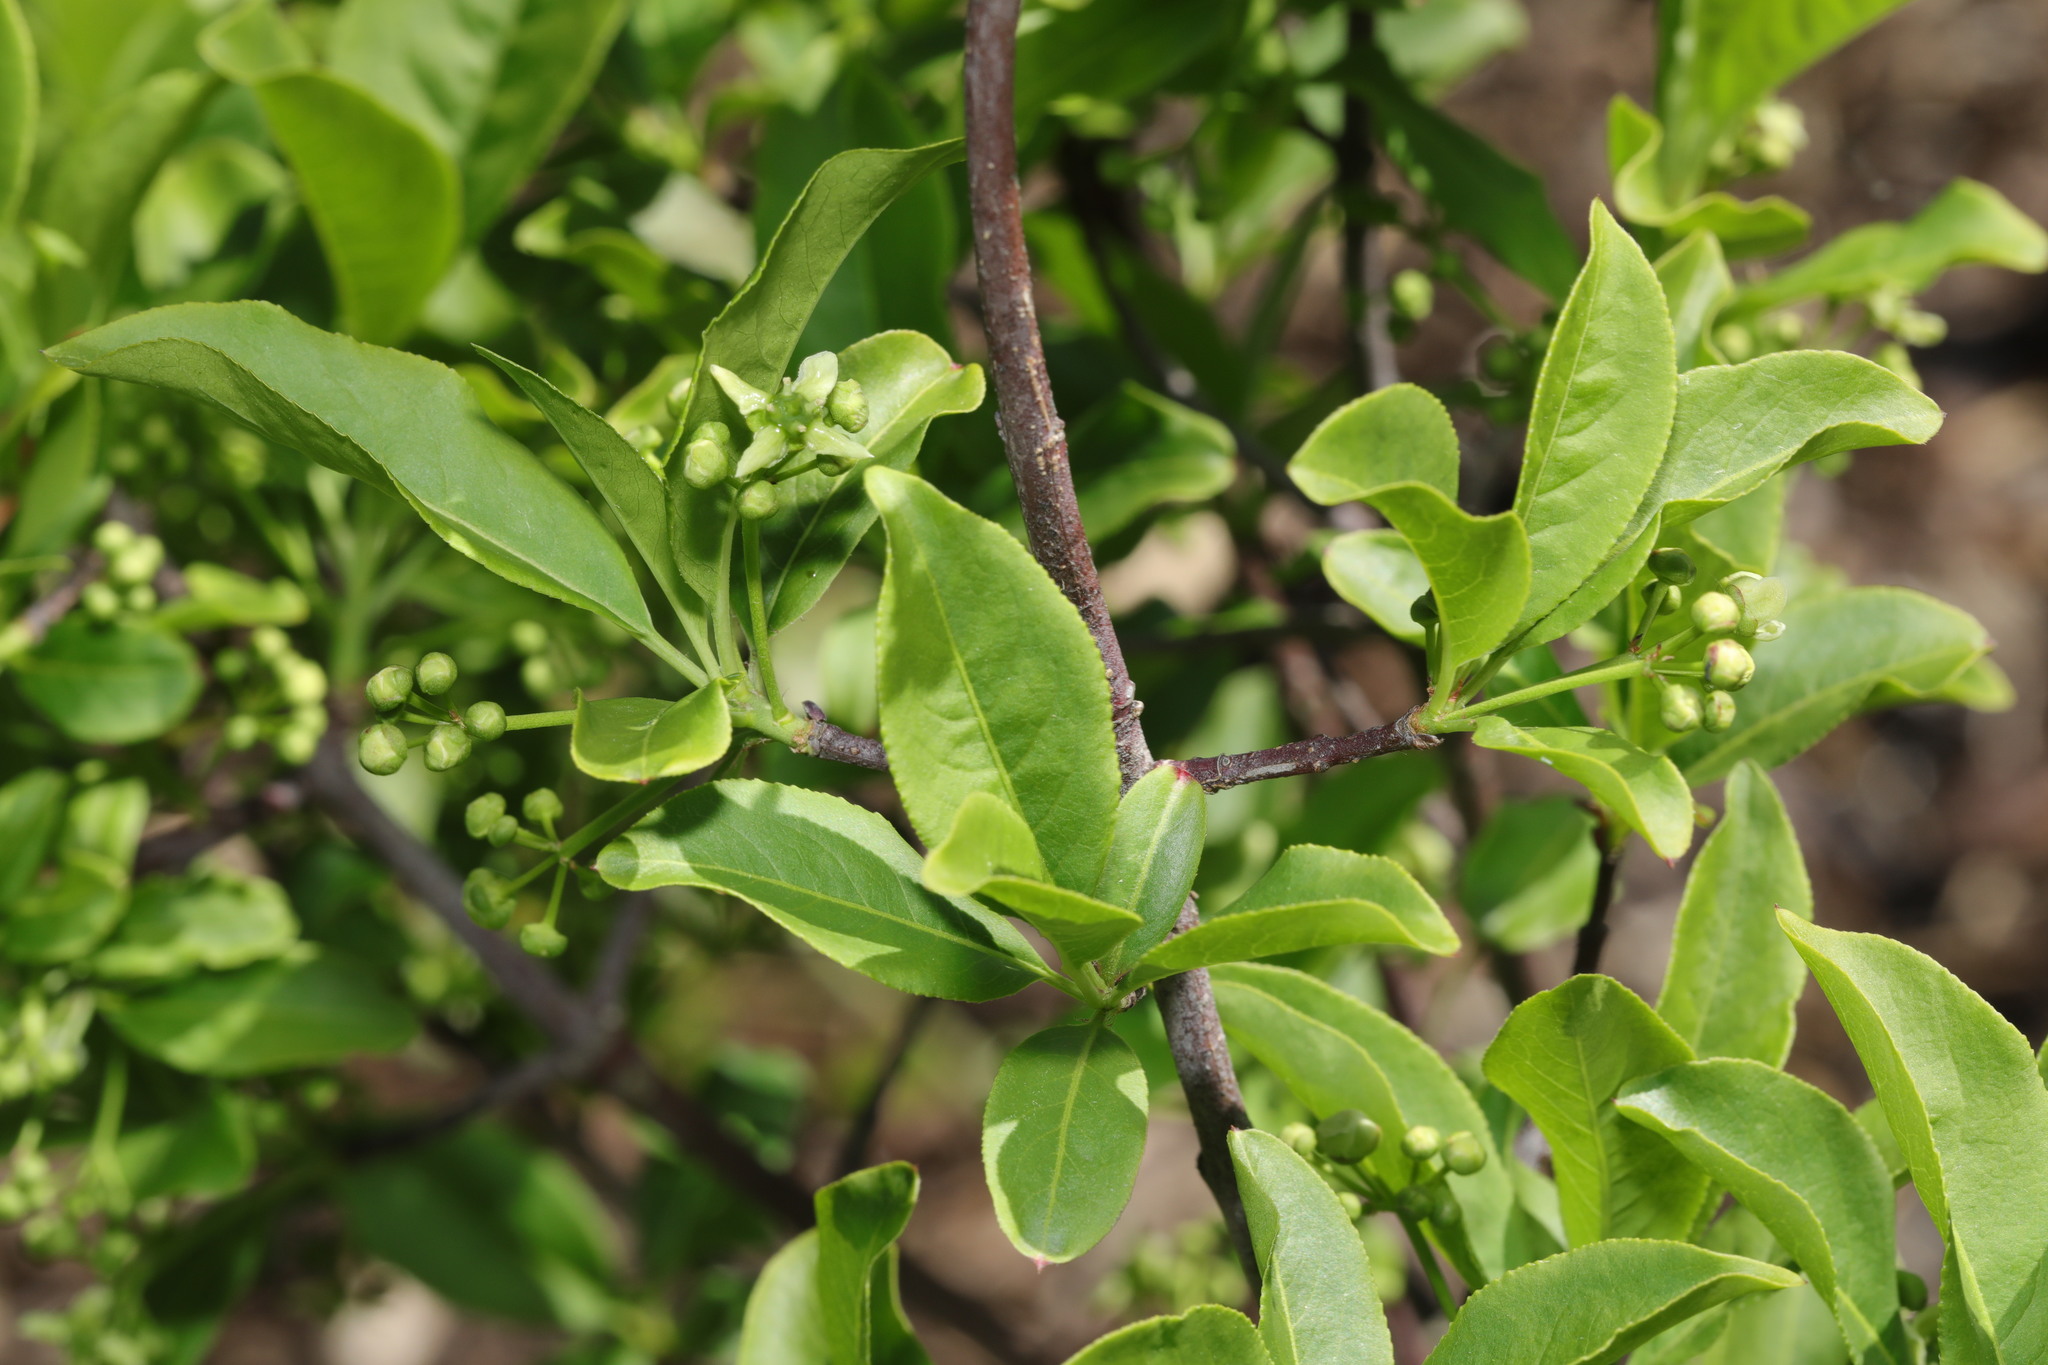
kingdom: Plantae
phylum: Tracheophyta
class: Magnoliopsida
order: Celastrales
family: Celastraceae
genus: Euonymus
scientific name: Euonymus europaeus
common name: Spindle
